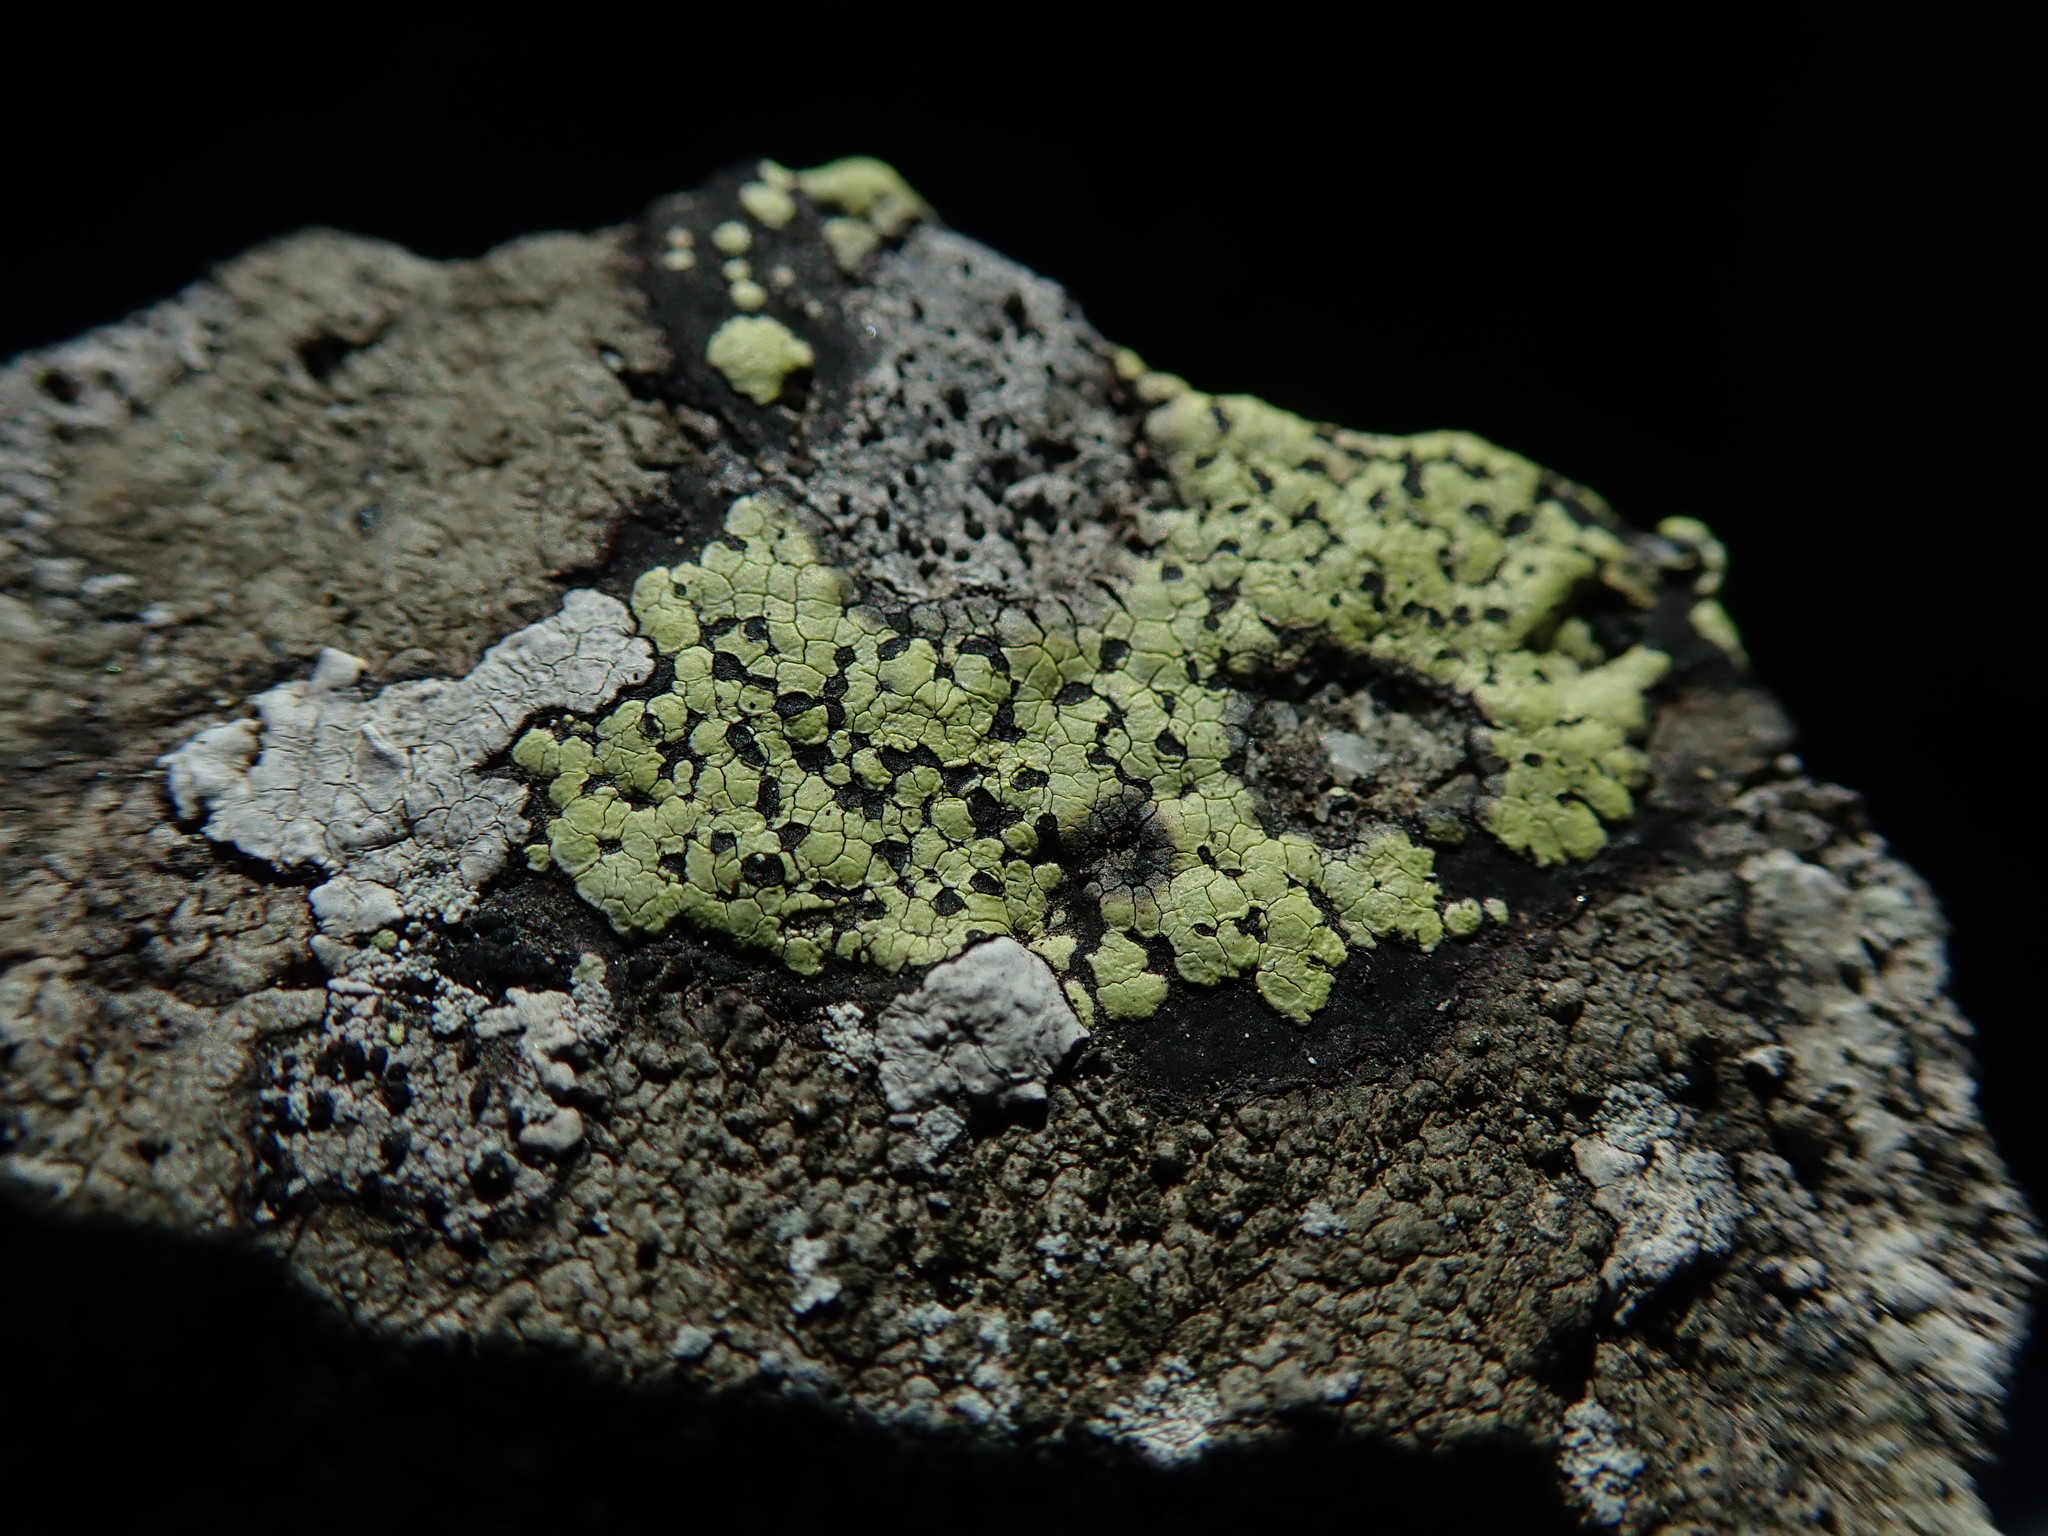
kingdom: Fungi
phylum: Ascomycota
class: Lecanoromycetes
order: Rhizocarpales
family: Rhizocarpaceae
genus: Rhizocarpon
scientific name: Rhizocarpon geographicum
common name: Yellow map lichen
